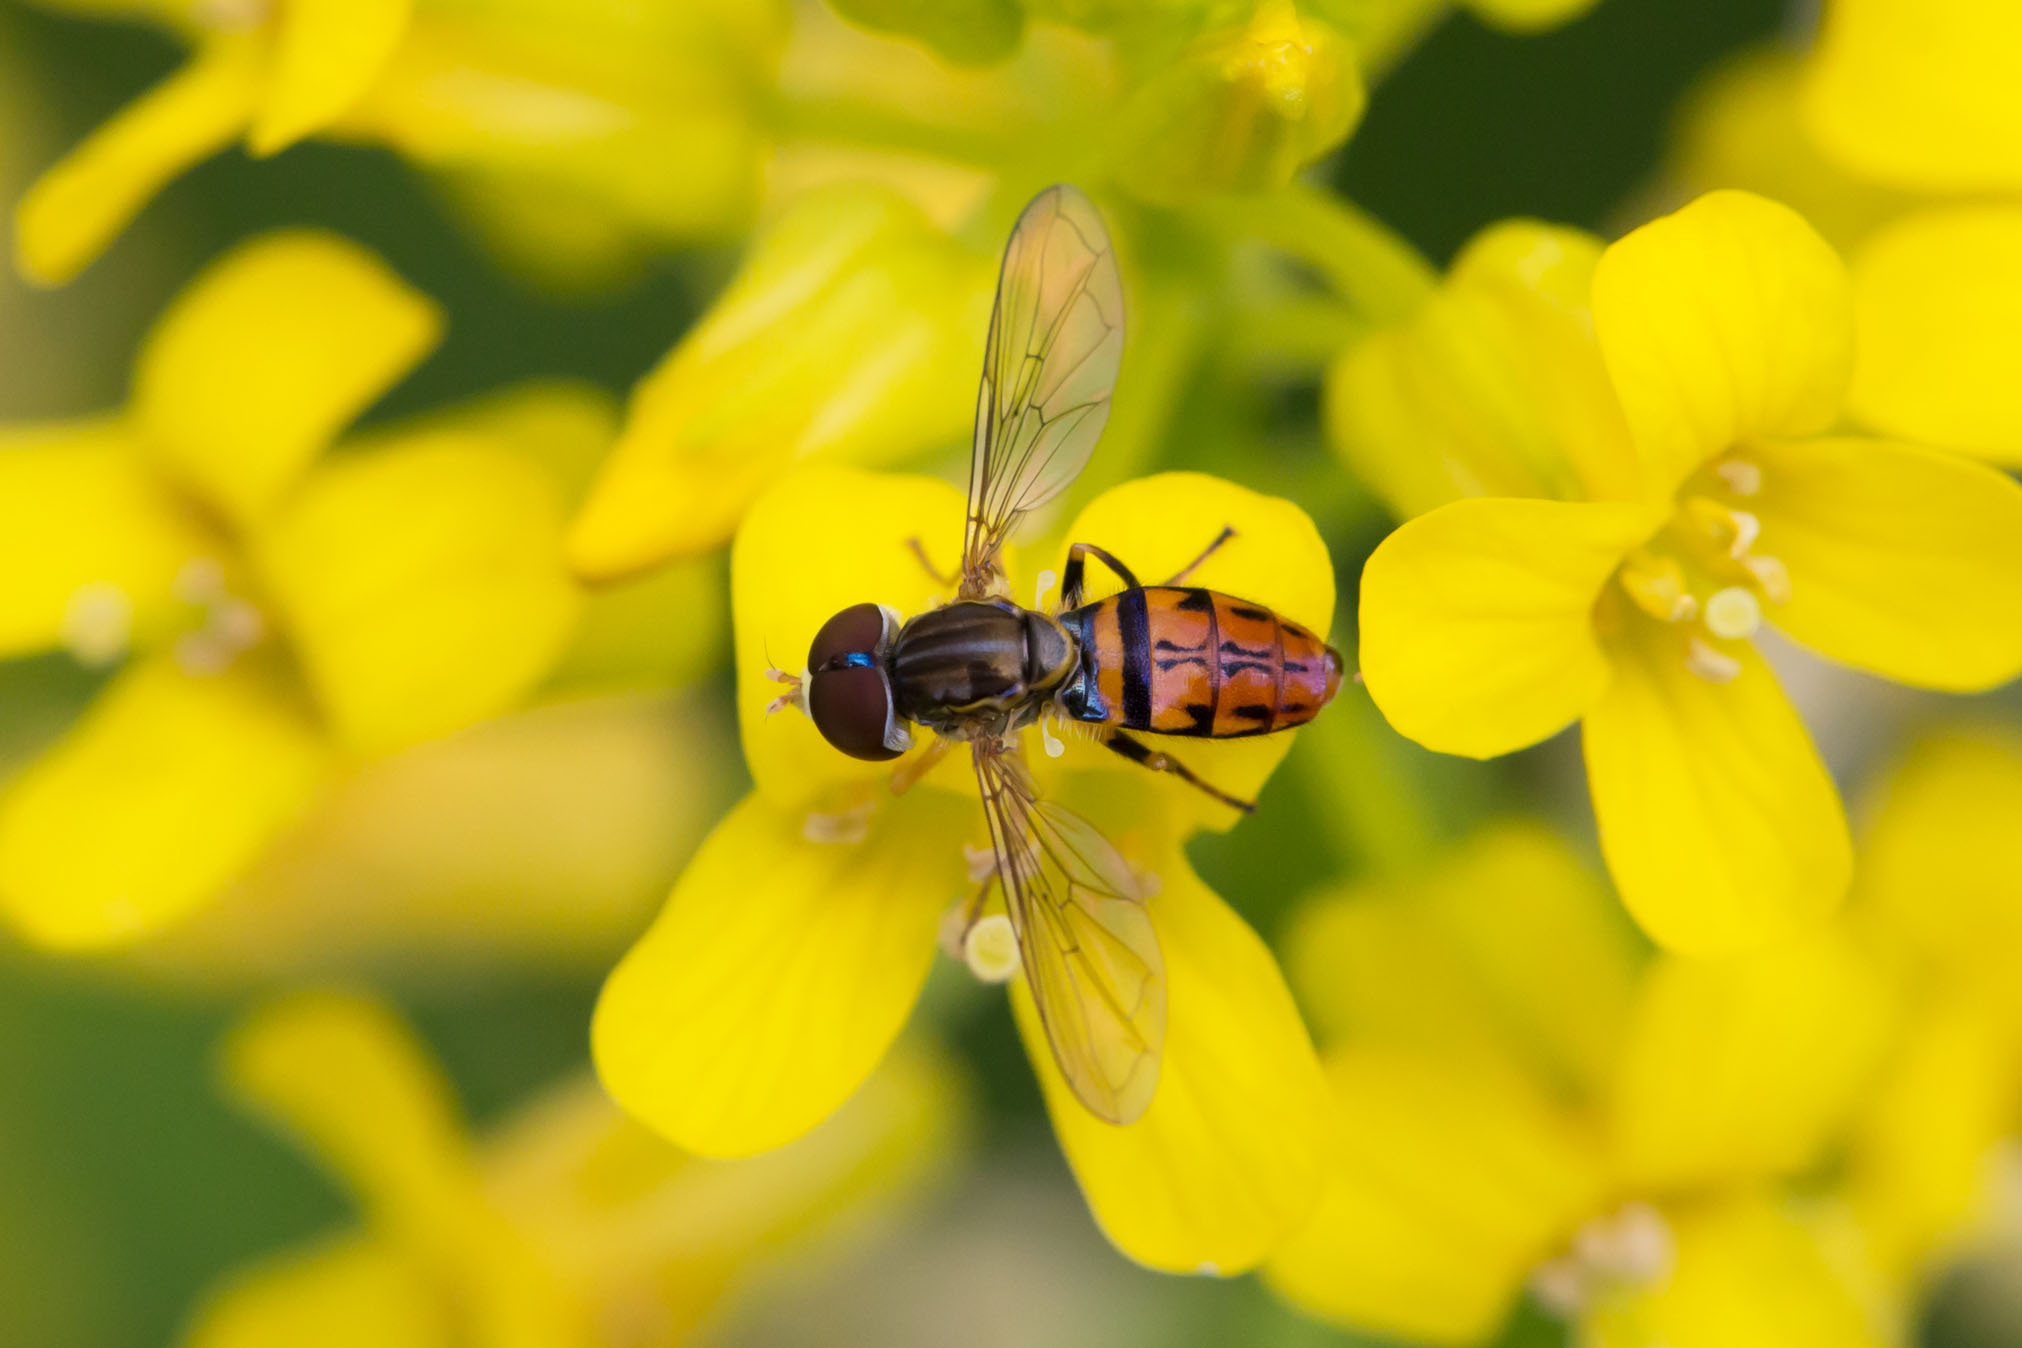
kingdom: Animalia
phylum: Arthropoda
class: Insecta
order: Diptera
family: Syrphidae
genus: Toxomerus
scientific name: Toxomerus boscii
